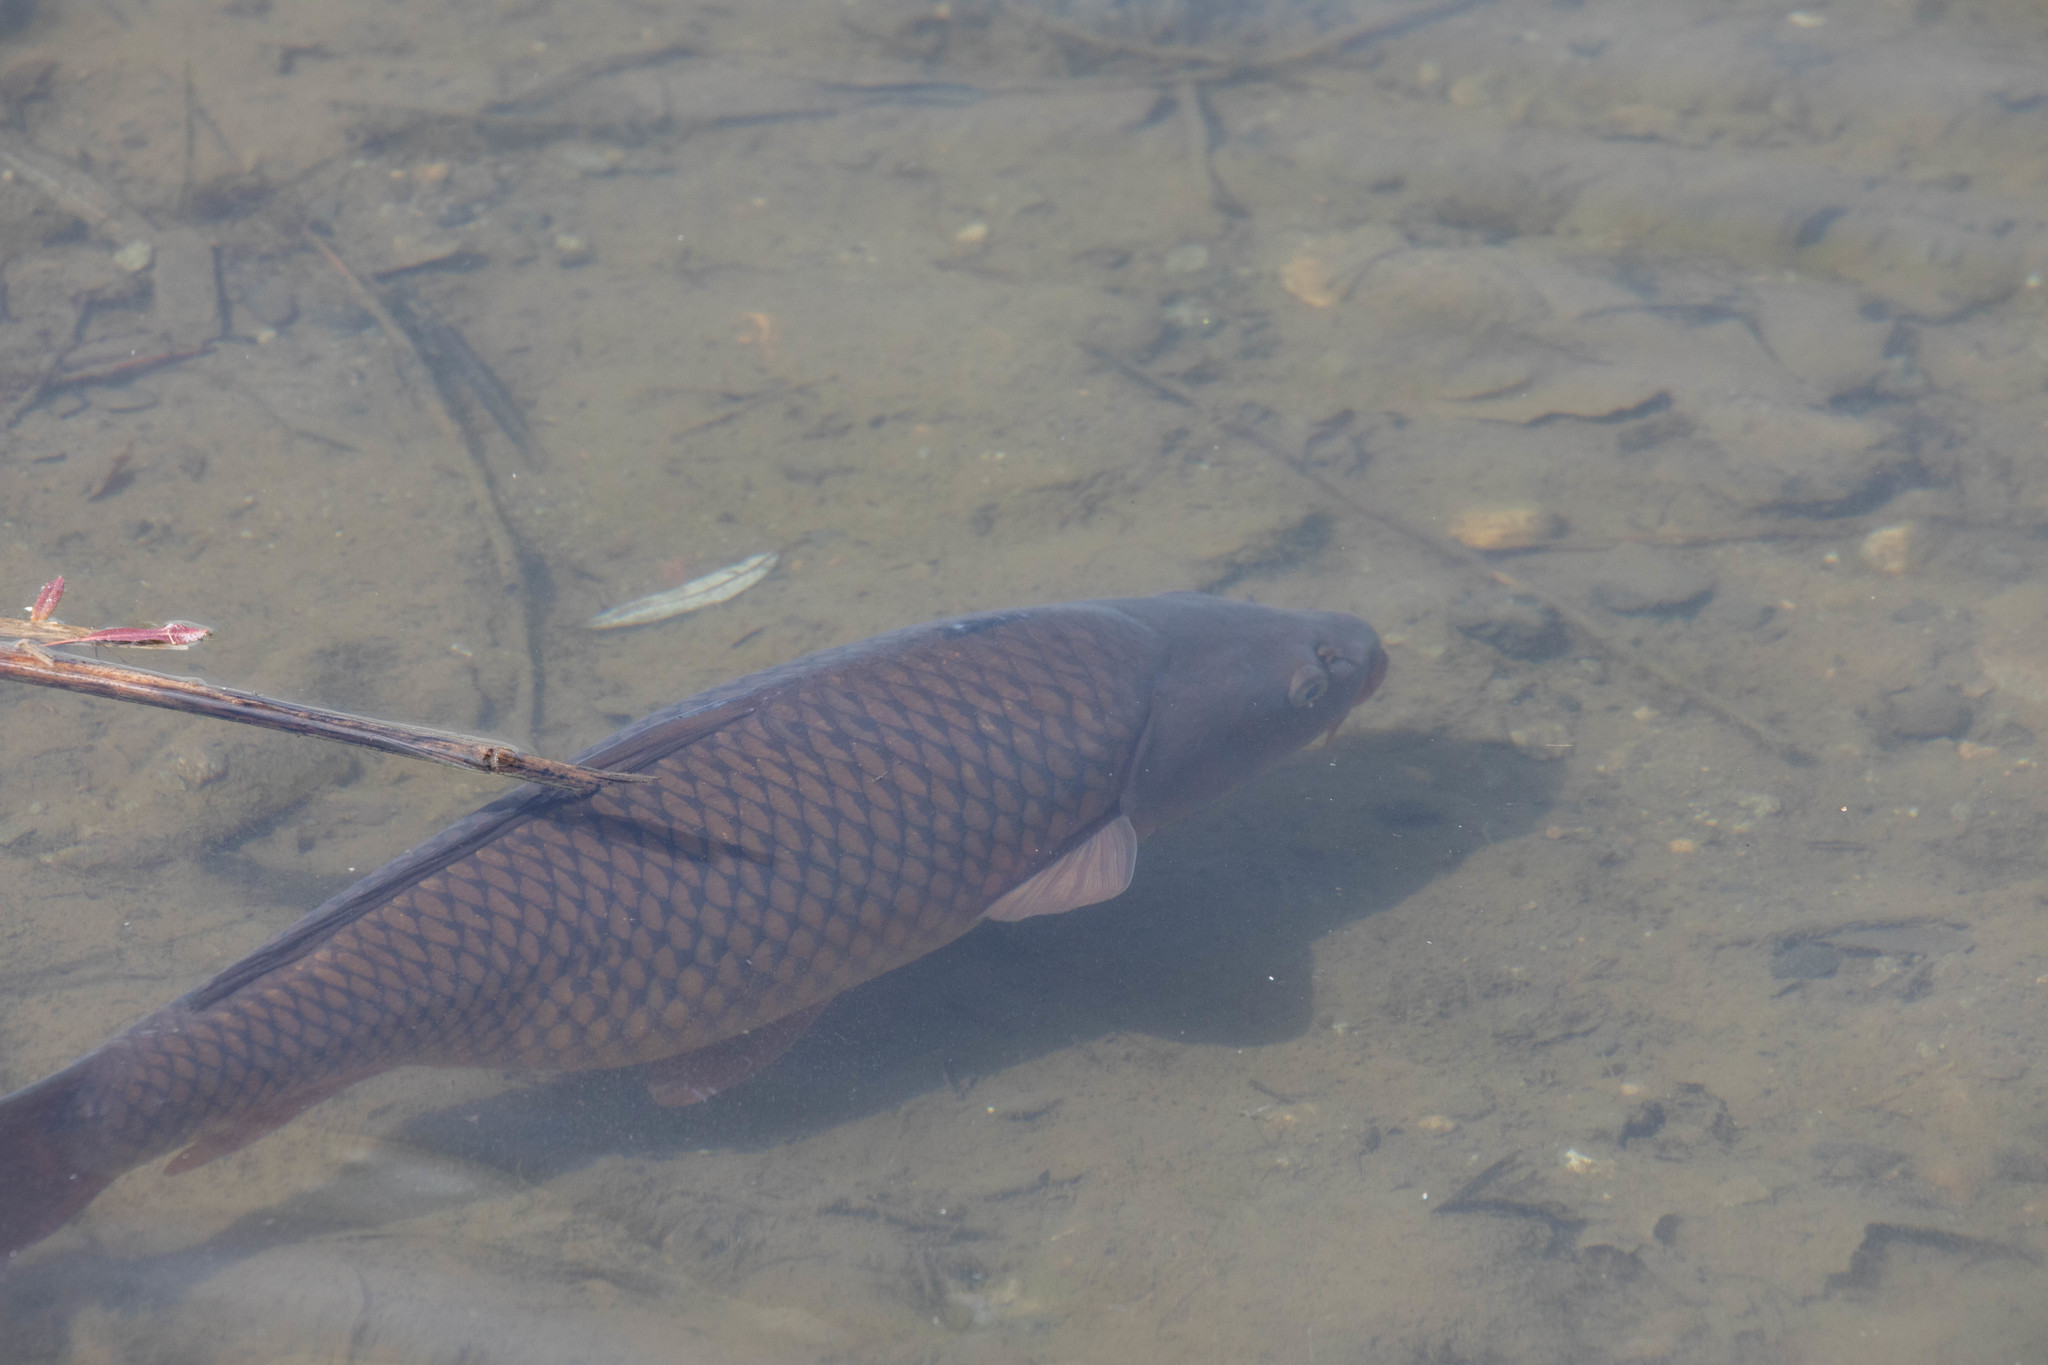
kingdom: Animalia
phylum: Chordata
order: Cypriniformes
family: Cyprinidae
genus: Cyprinus
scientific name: Cyprinus carpio
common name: Common carp
